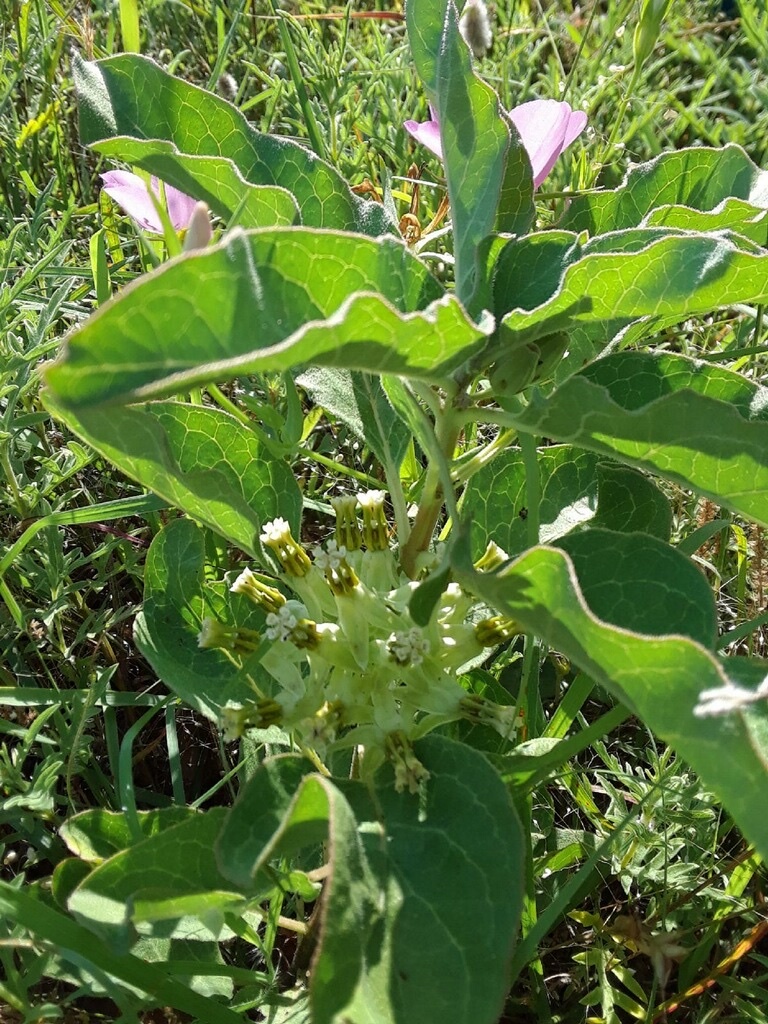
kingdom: Plantae
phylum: Tracheophyta
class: Magnoliopsida
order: Gentianales
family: Apocynaceae
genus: Asclepias
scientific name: Asclepias oenotheroides
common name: Zizotes milkweed
